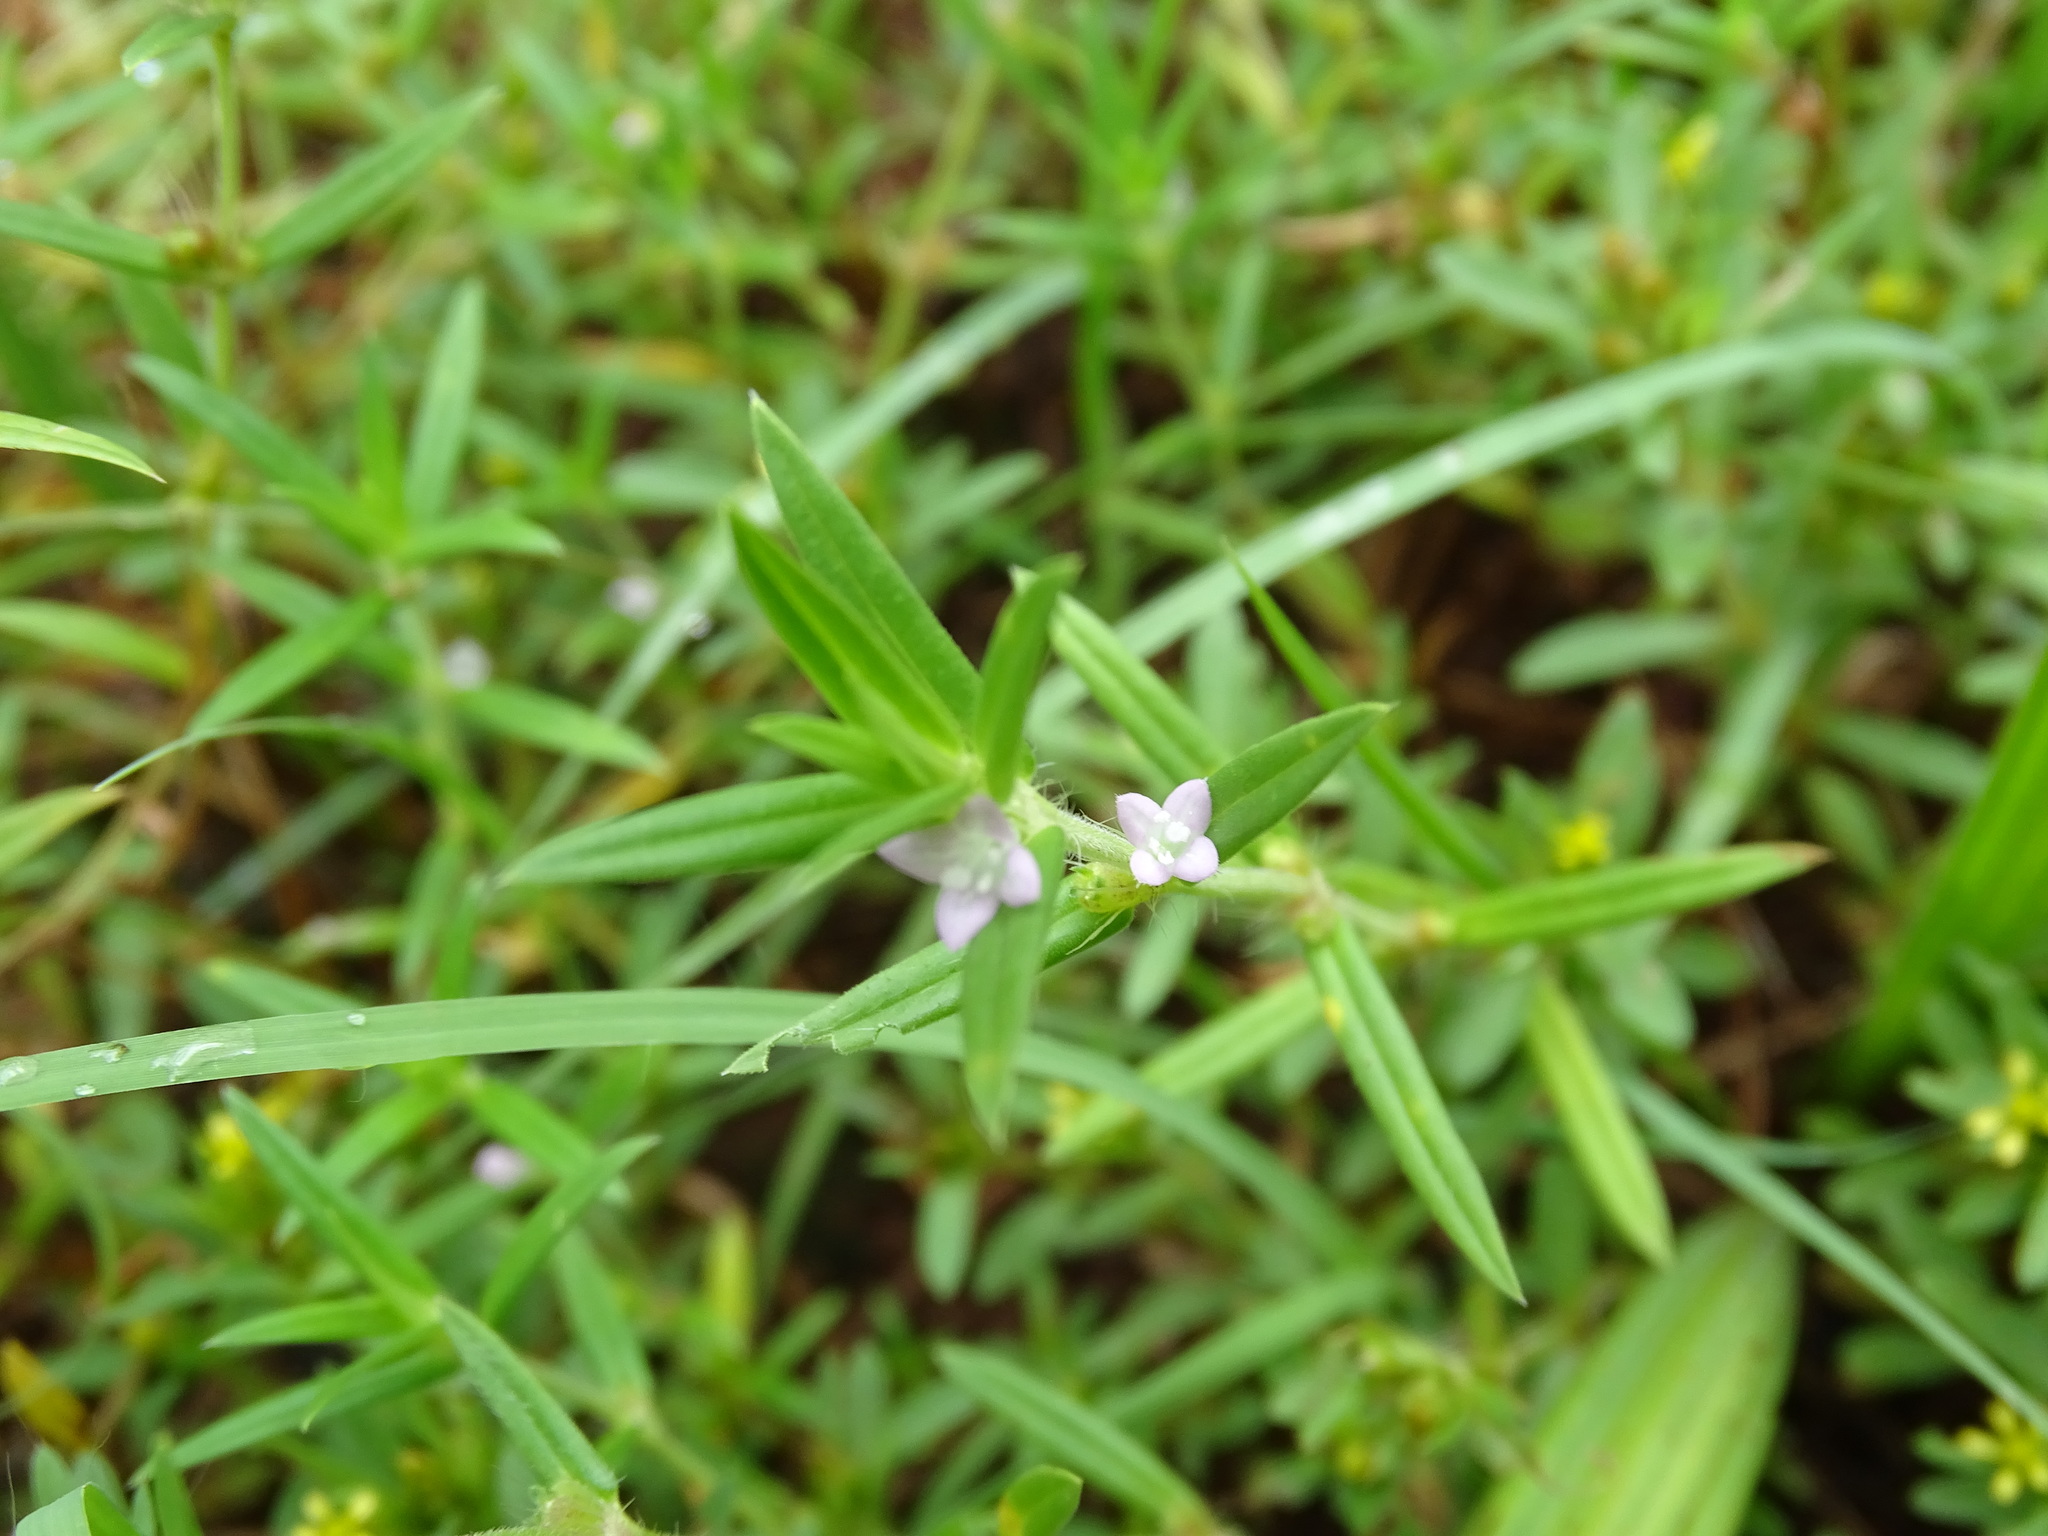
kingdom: Plantae
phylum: Tracheophyta
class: Magnoliopsida
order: Gentianales
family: Rubiaceae
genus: Hexasepalum
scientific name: Hexasepalum teres
